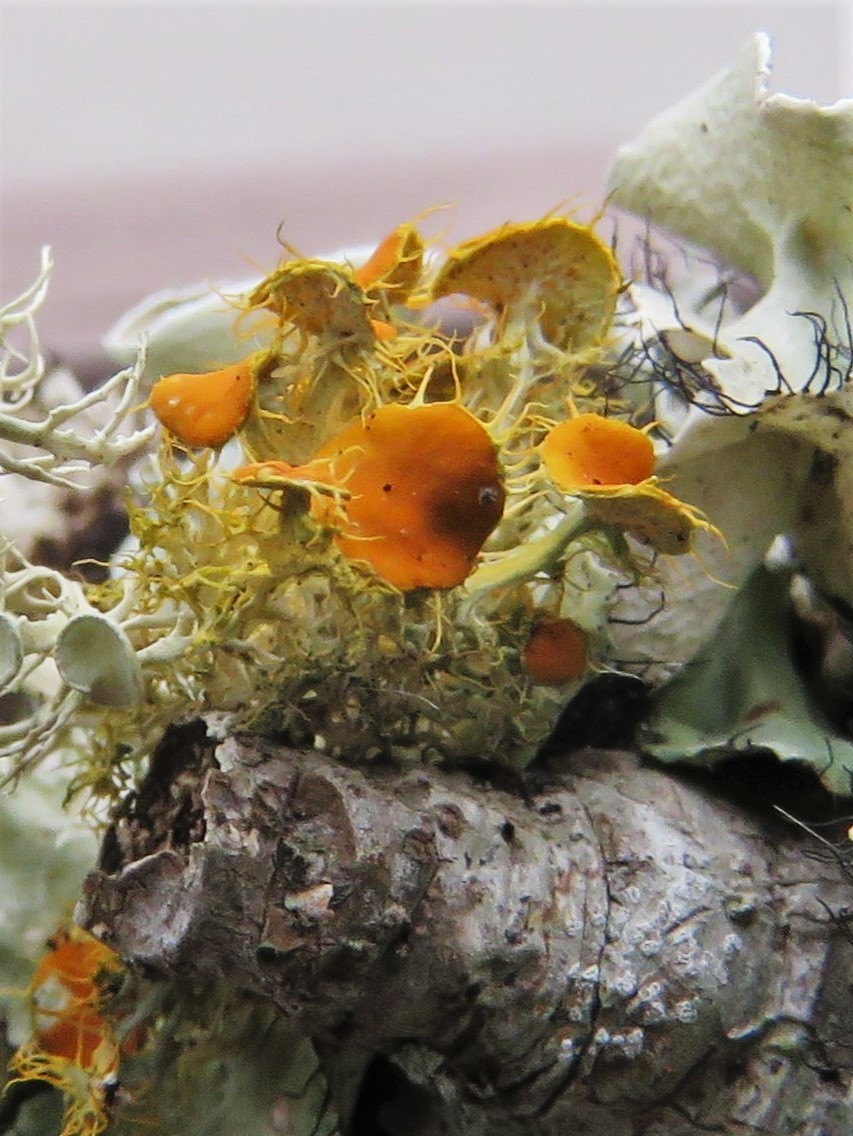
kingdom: Fungi
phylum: Ascomycota
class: Lecanoromycetes
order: Teloschistales
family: Teloschistaceae
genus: Niorma
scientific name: Niorma chrysophthalma
